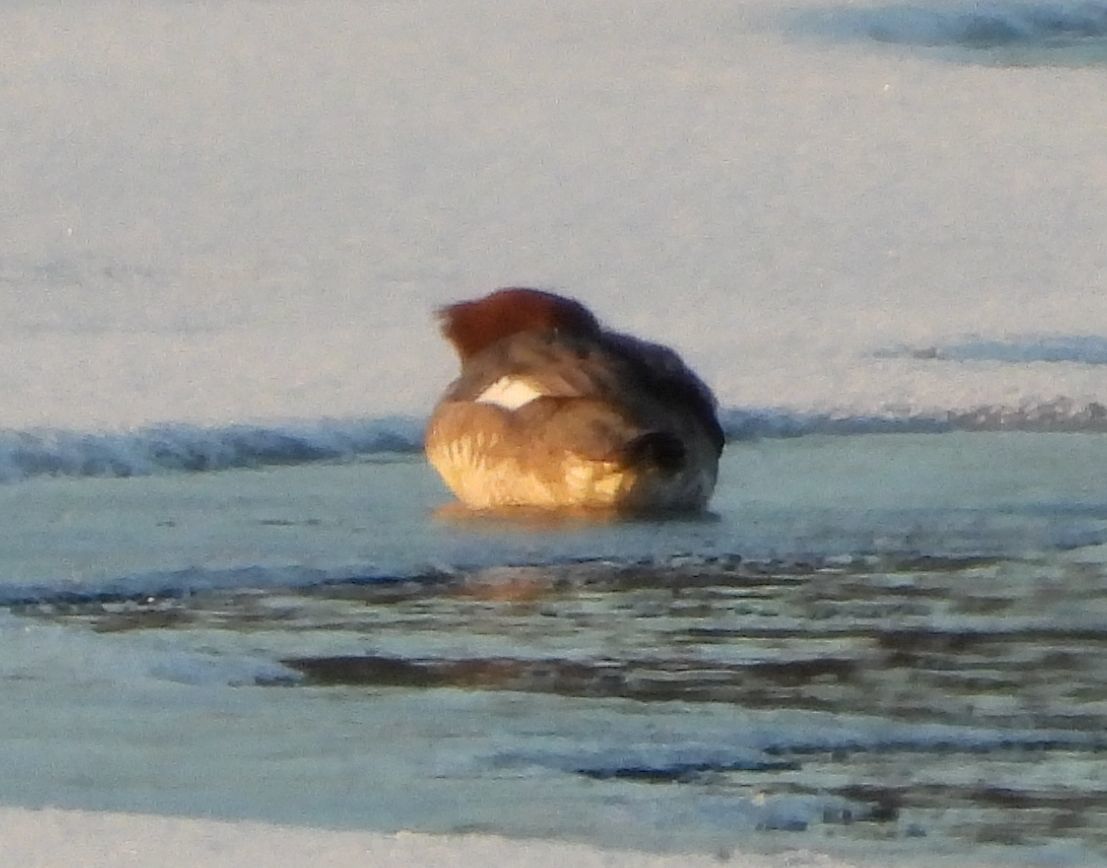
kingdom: Animalia
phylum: Chordata
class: Aves
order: Anseriformes
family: Anatidae
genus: Mergus
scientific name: Mergus merganser
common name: Common merganser
